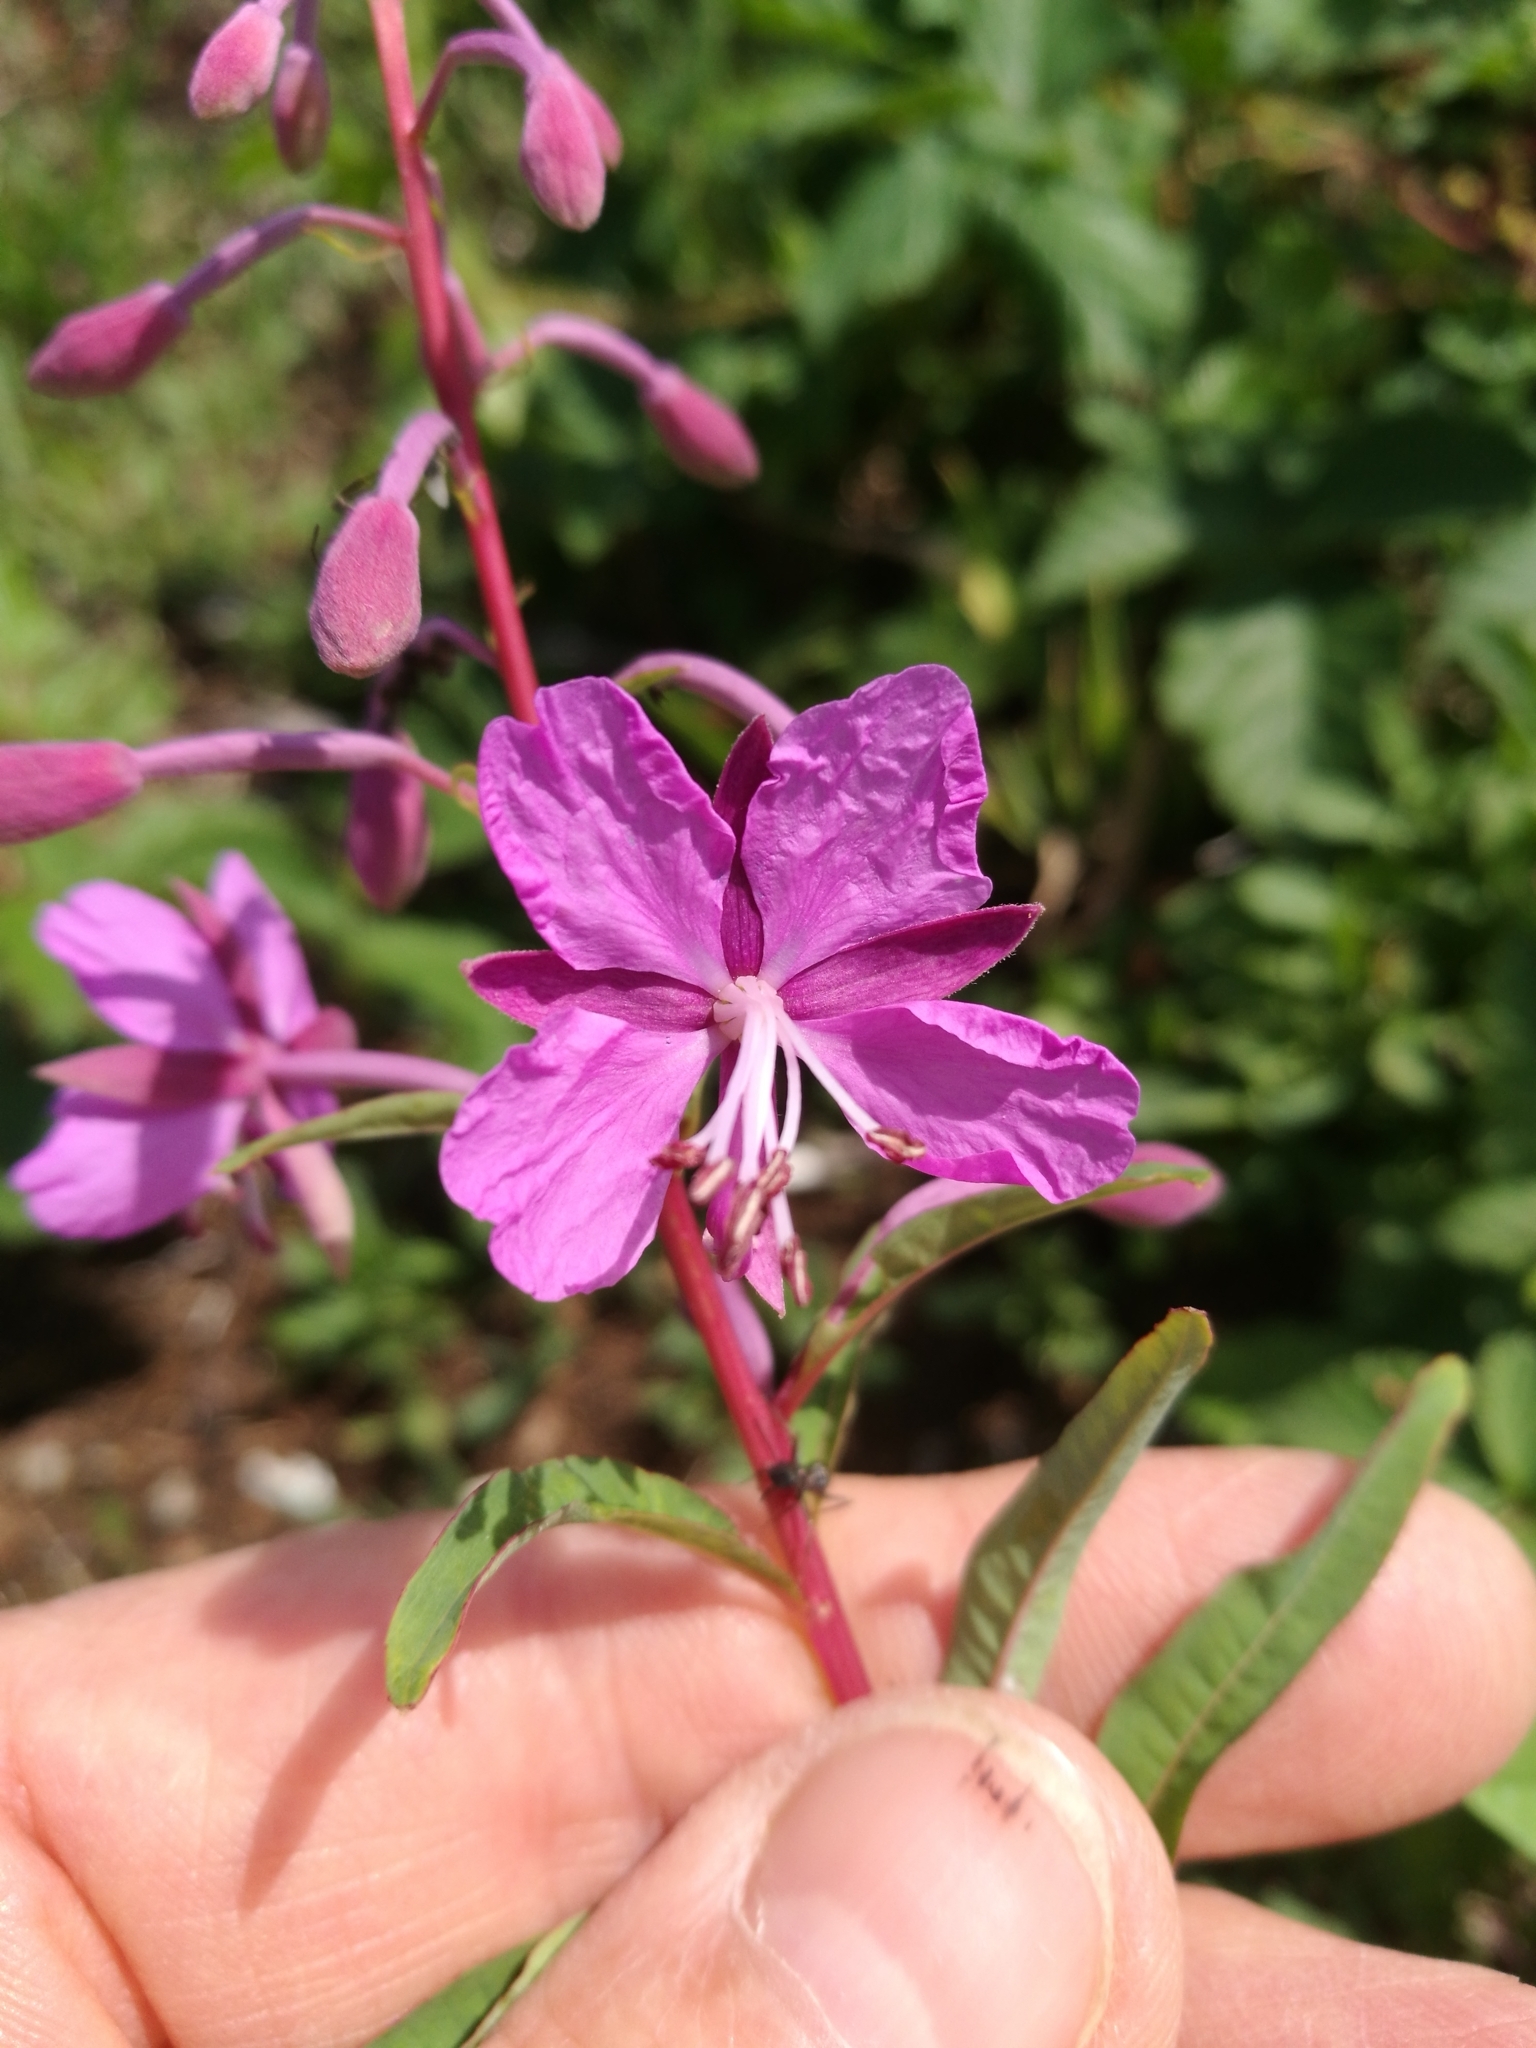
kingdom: Plantae
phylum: Tracheophyta
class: Magnoliopsida
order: Myrtales
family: Onagraceae
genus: Chamaenerion
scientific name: Chamaenerion angustifolium
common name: Fireweed
